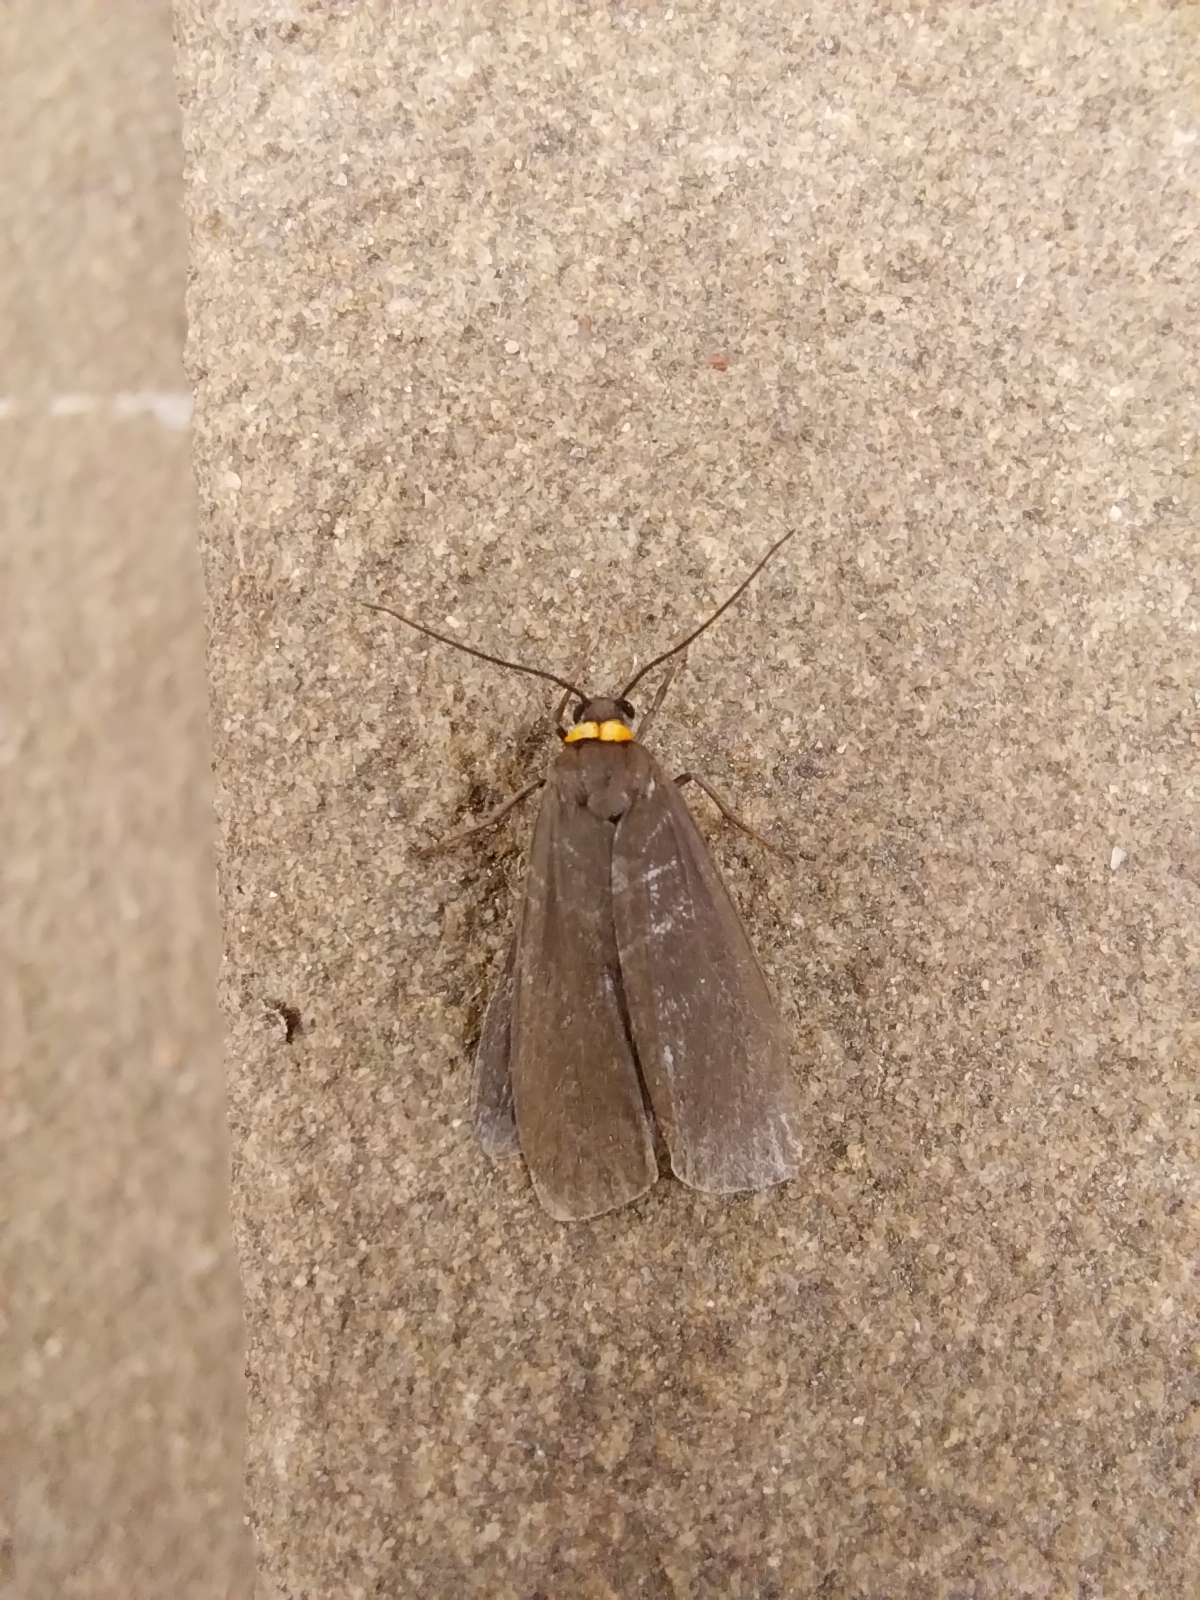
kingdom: Animalia
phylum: Arthropoda
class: Insecta
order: Lepidoptera
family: Erebidae
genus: Atolmis
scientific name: Atolmis rubricollis
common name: Red-necked footman
